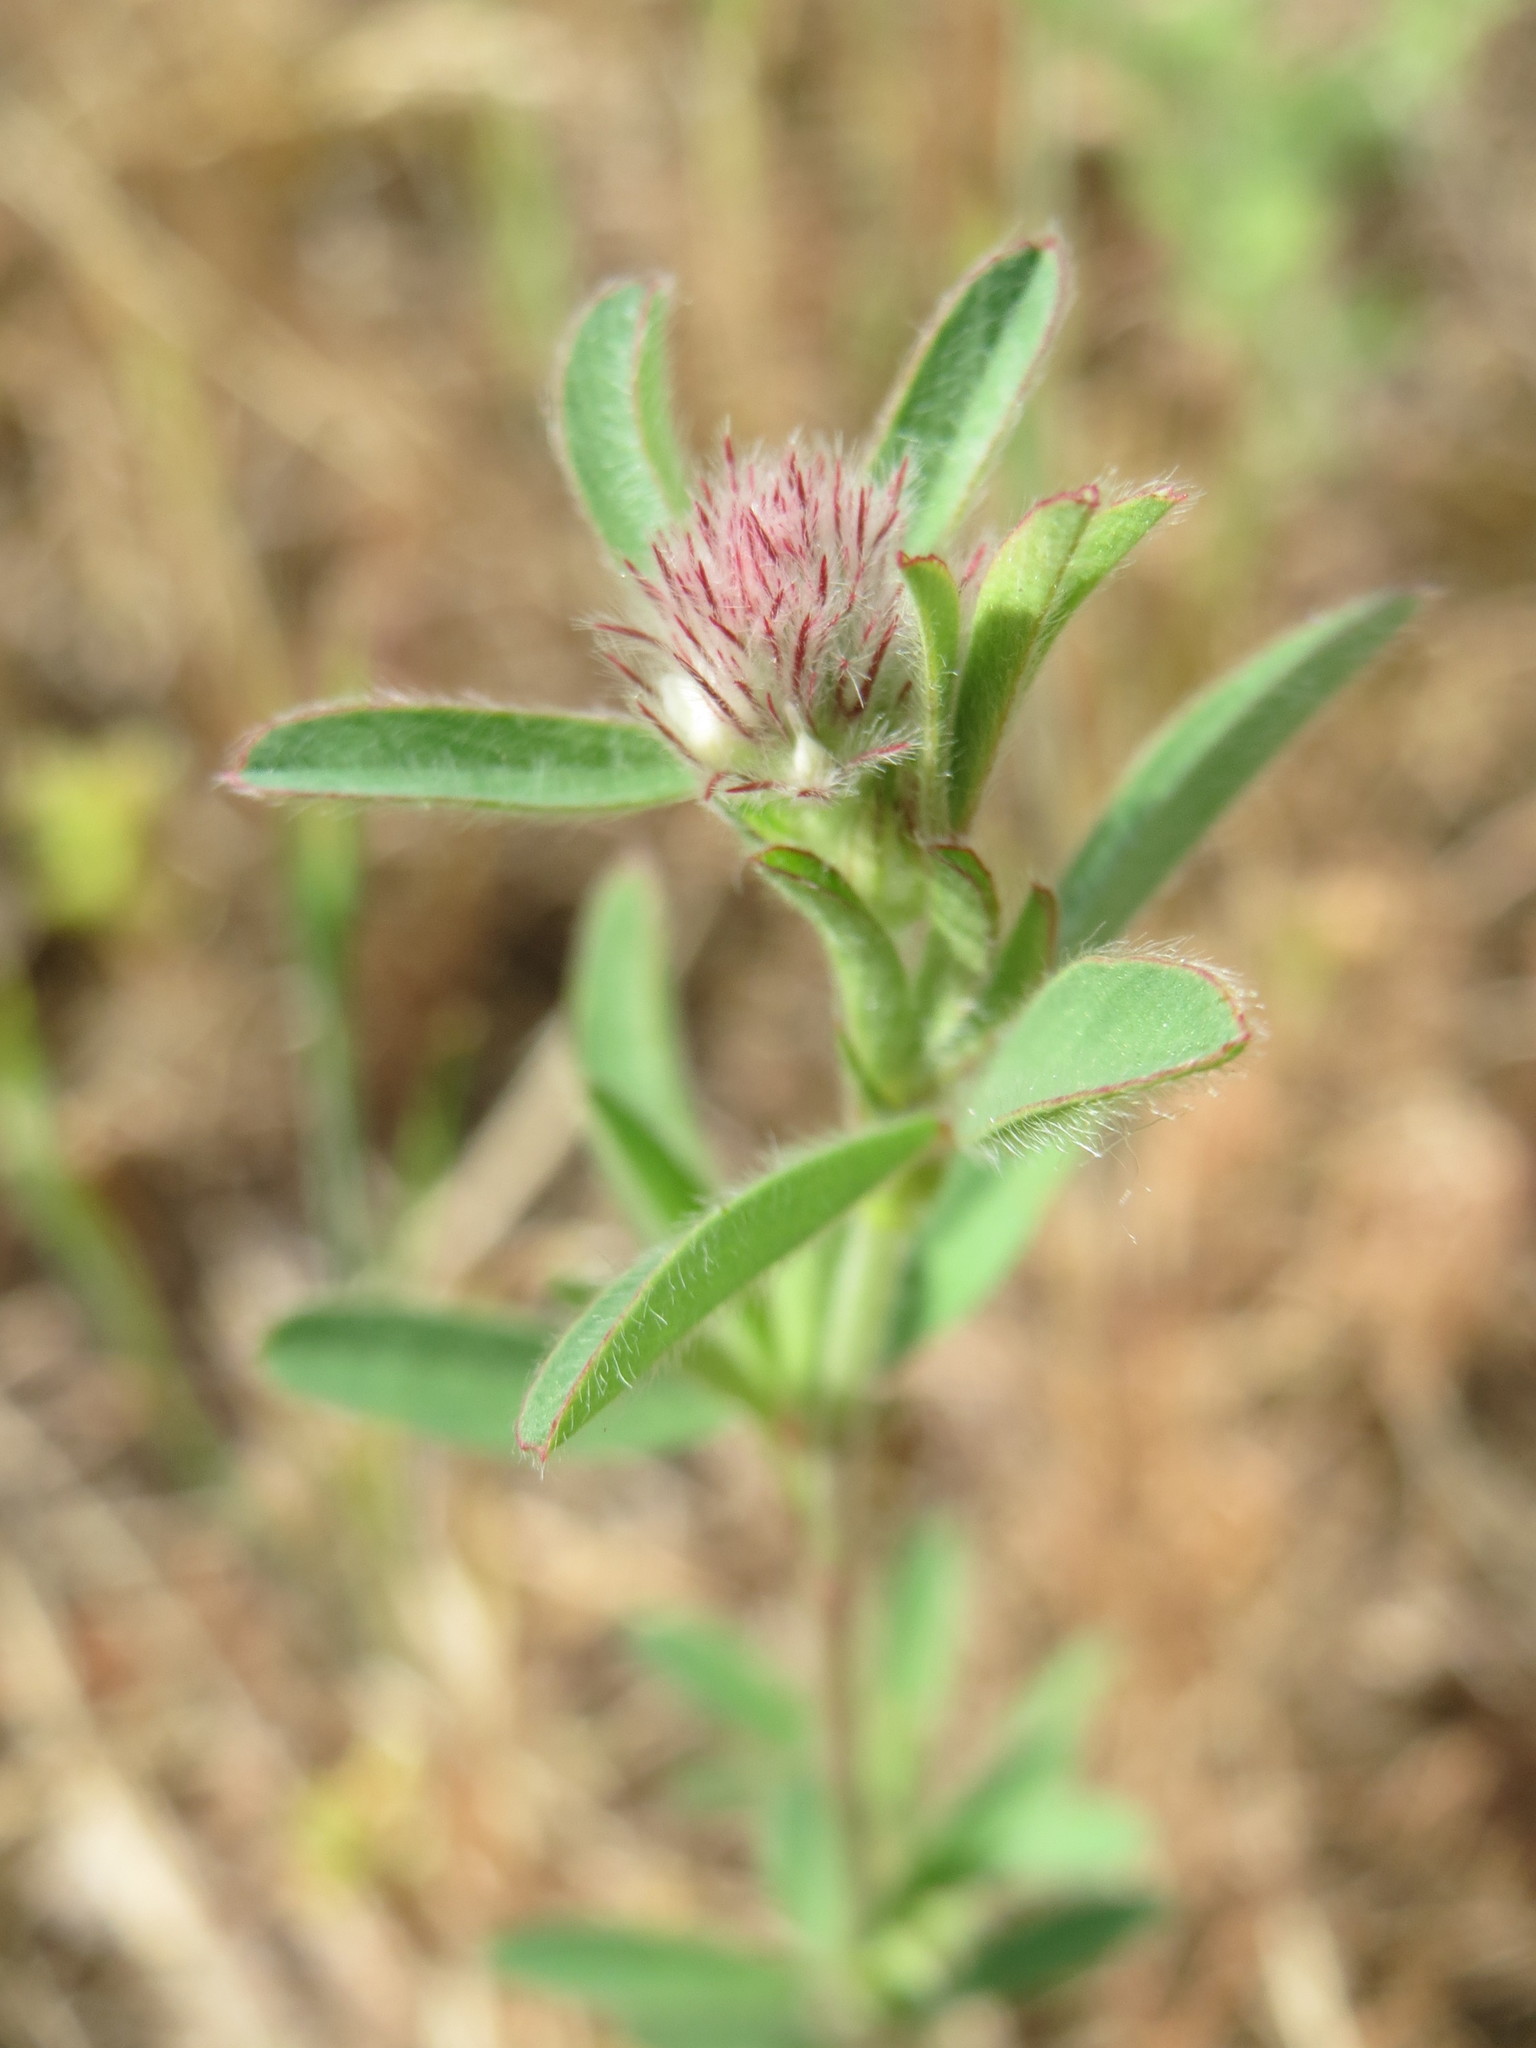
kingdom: Plantae
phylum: Tracheophyta
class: Magnoliopsida
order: Fabales
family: Fabaceae
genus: Trifolium
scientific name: Trifolium arvense
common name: Hare's-foot clover
